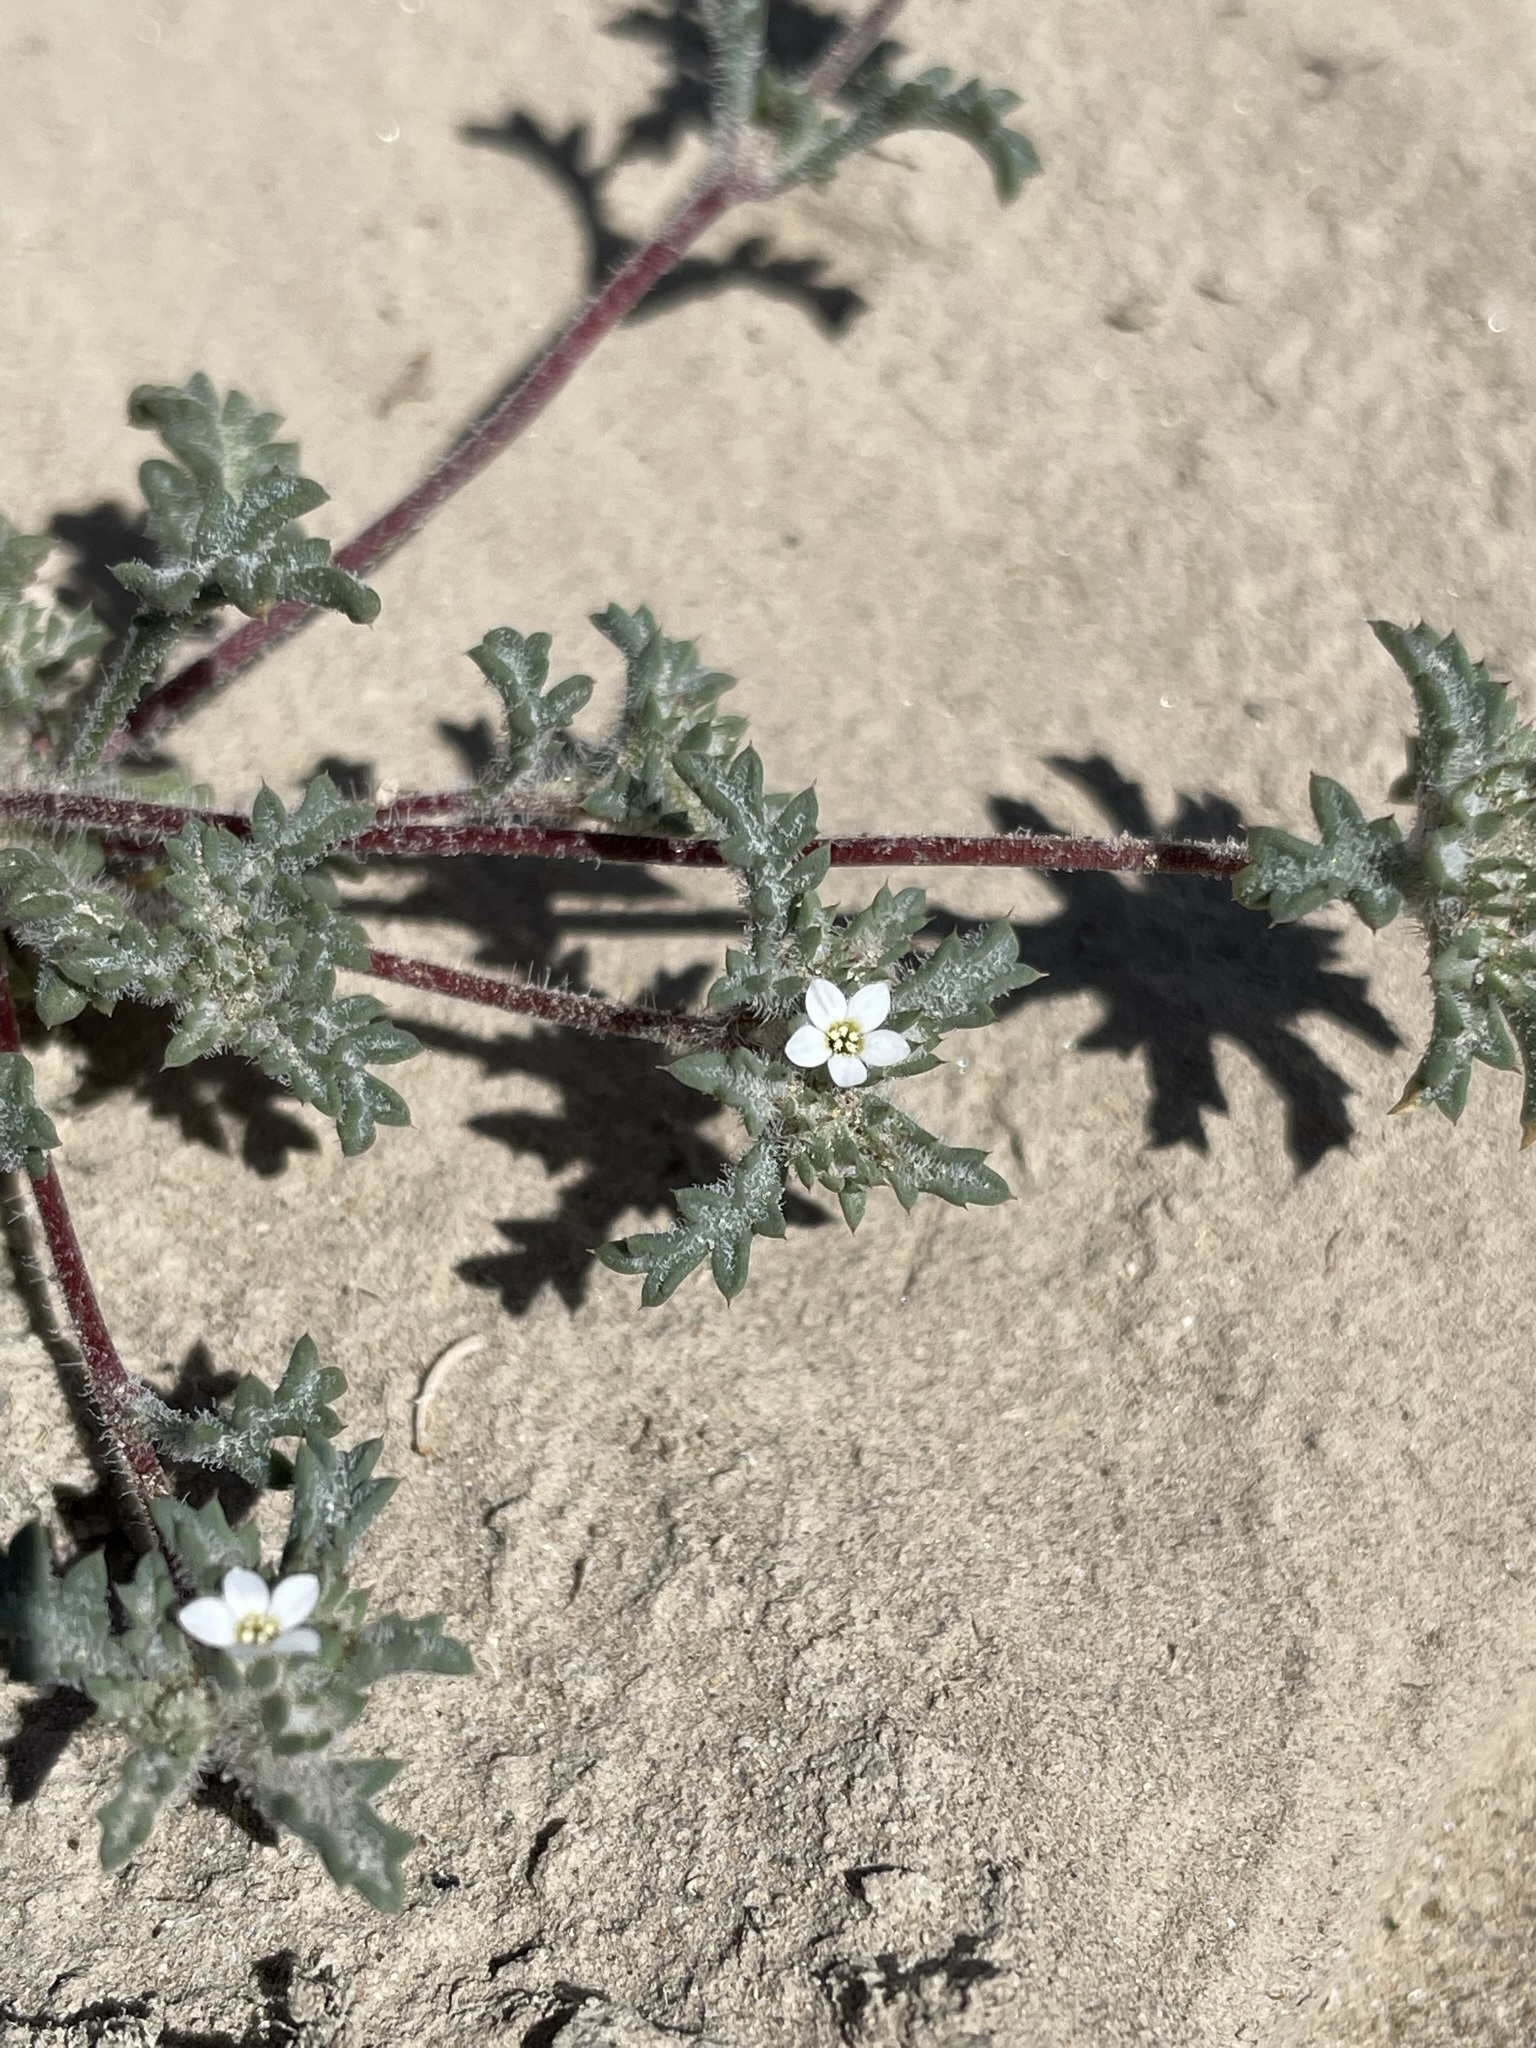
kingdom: Plantae
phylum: Tracheophyta
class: Magnoliopsida
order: Ericales
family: Polemoniaceae
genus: Ipomopsis
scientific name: Ipomopsis polycladon
